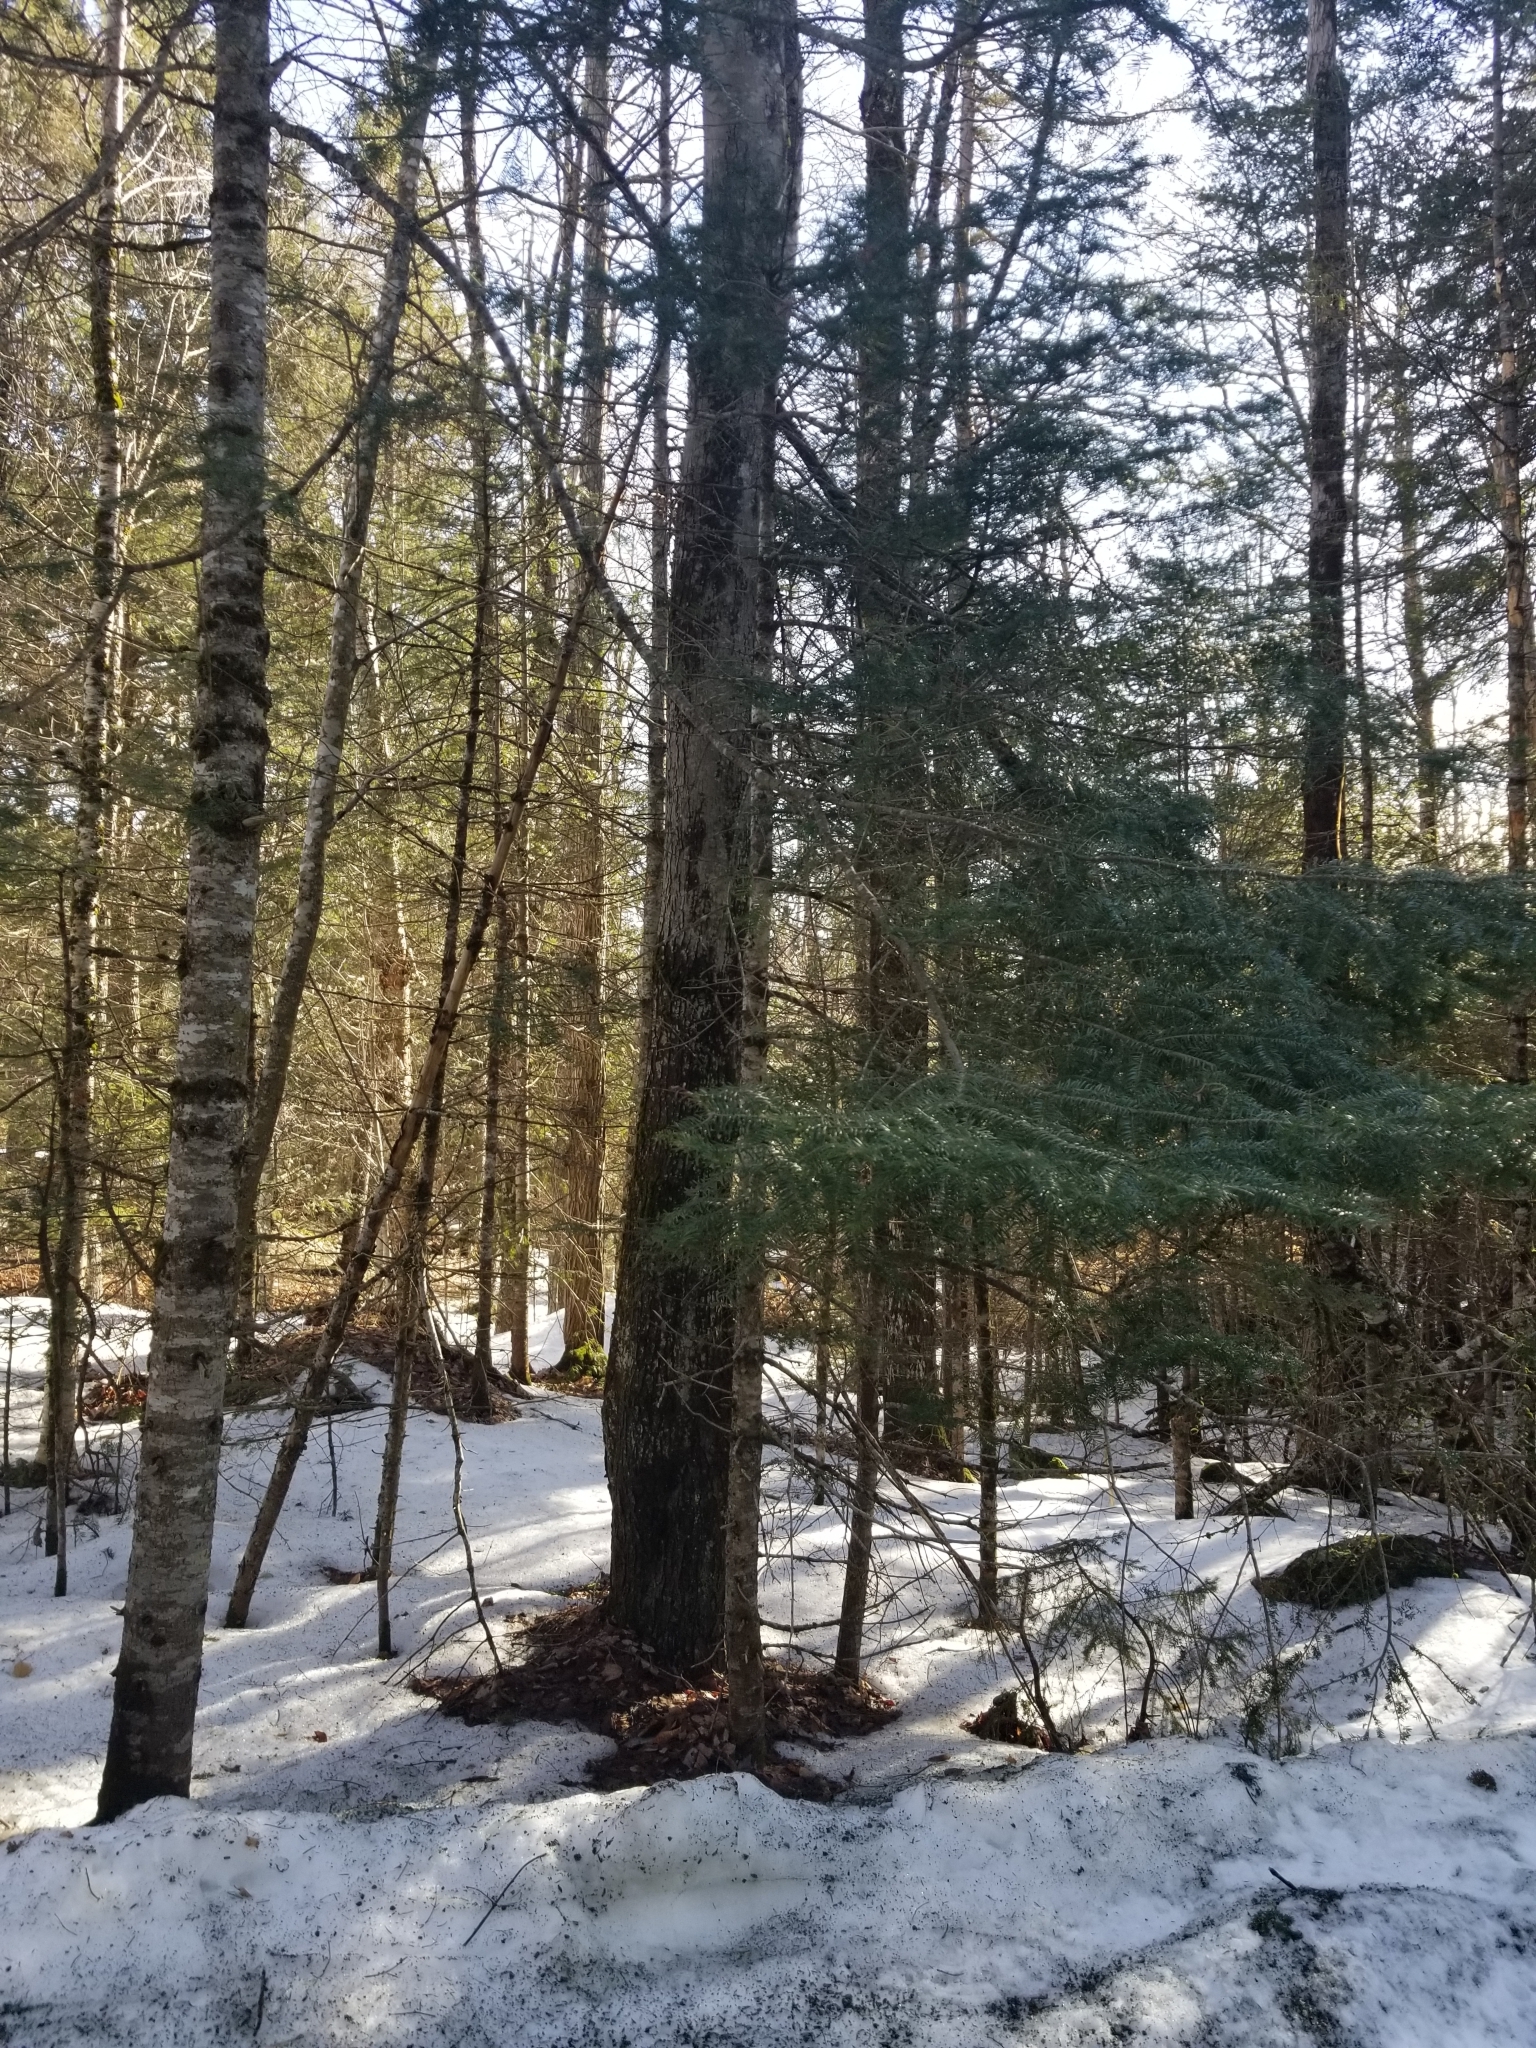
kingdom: Plantae
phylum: Tracheophyta
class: Pinopsida
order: Pinales
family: Pinaceae
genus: Abies
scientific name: Abies balsamea
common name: Balsam fir
